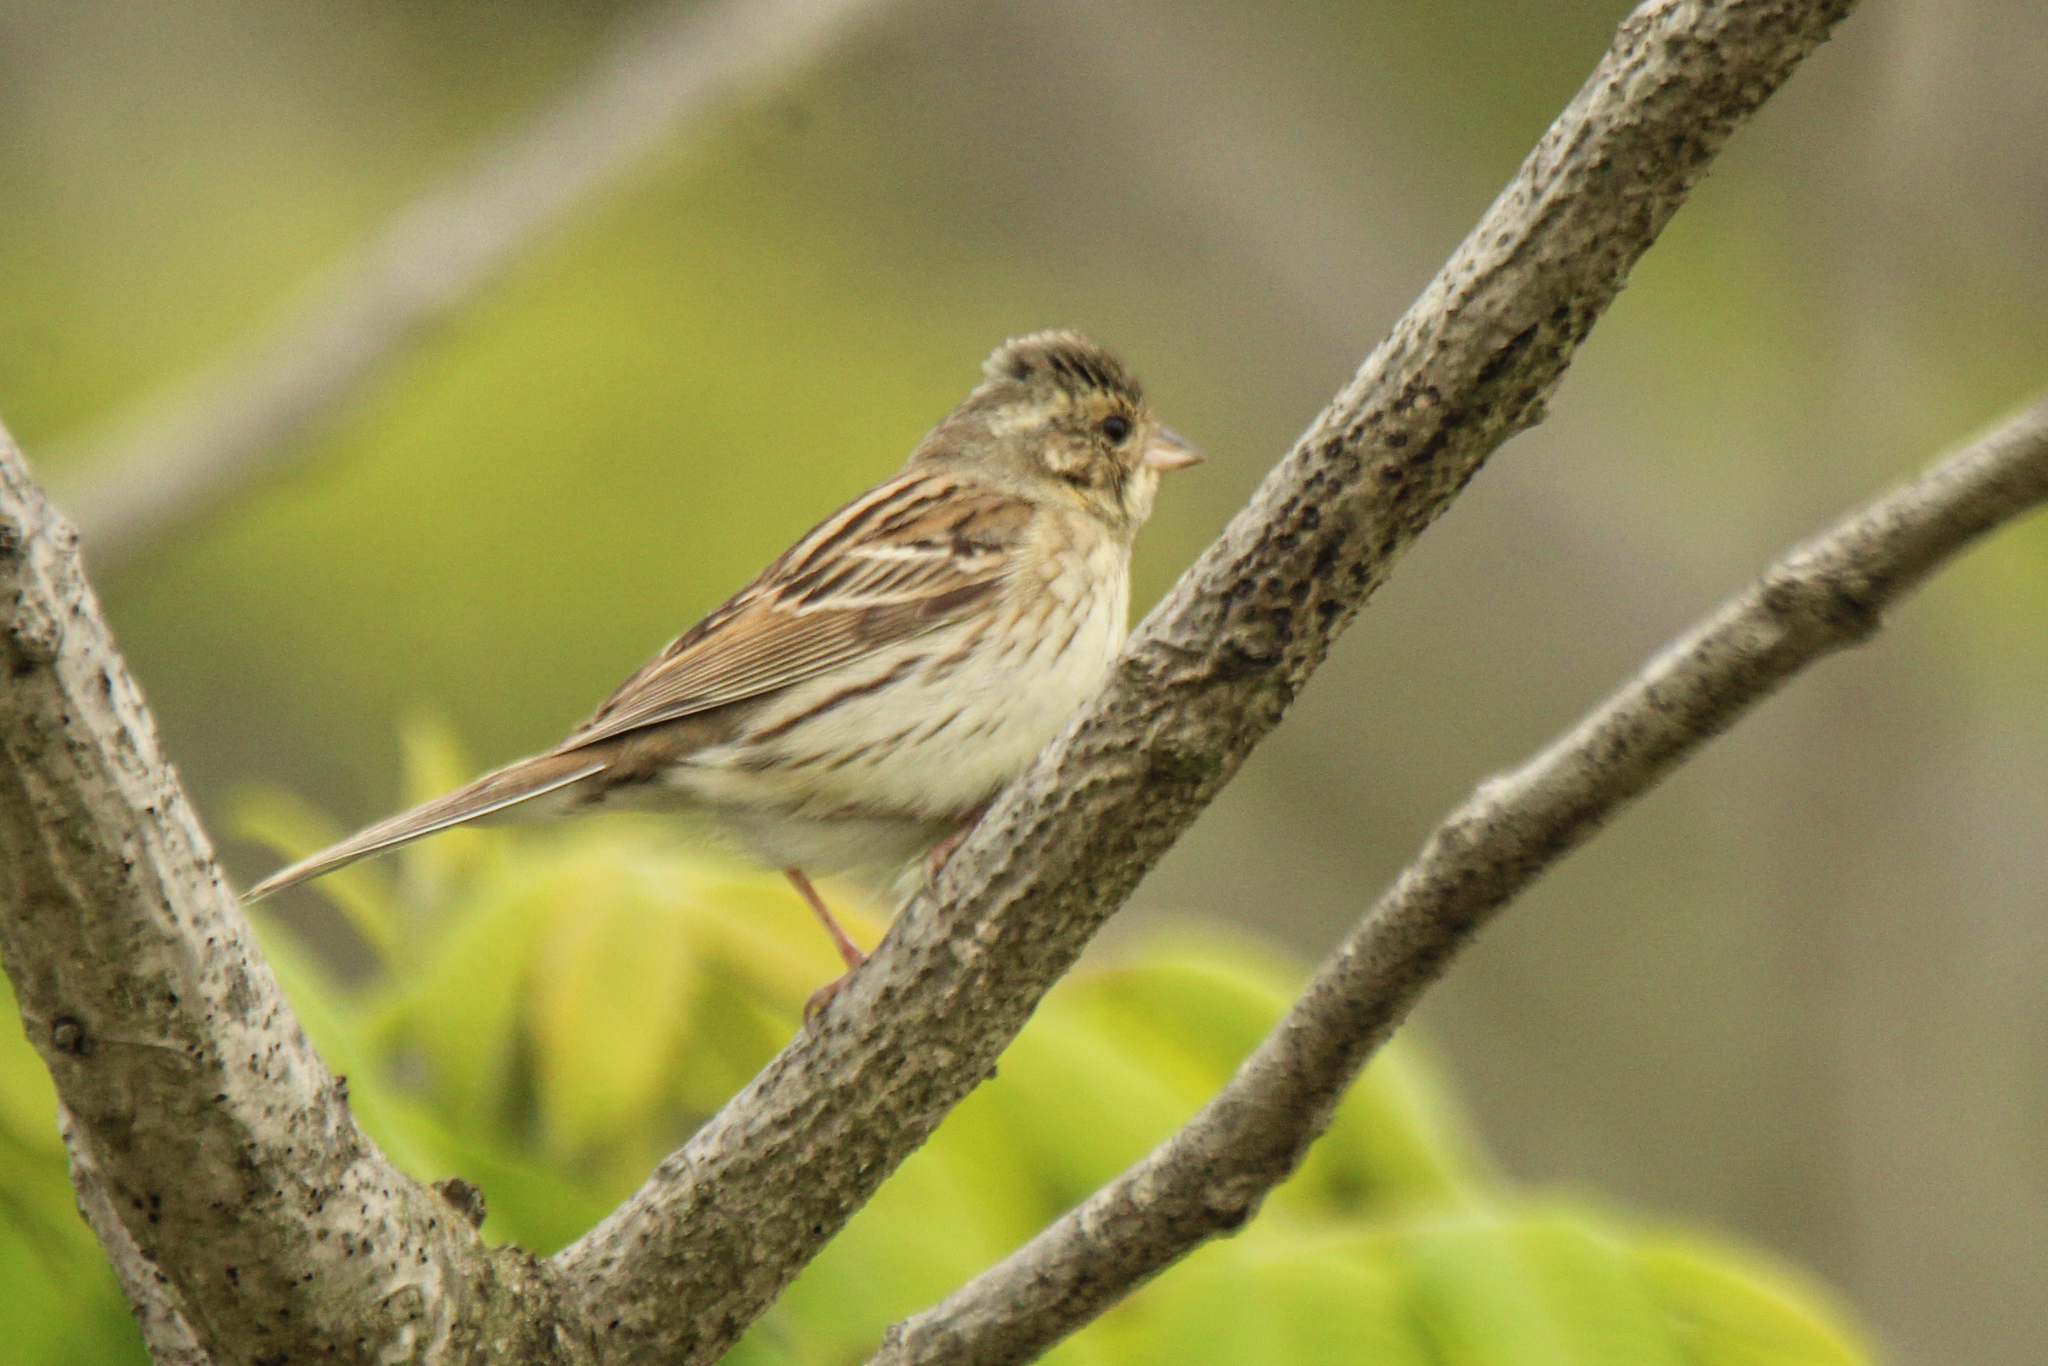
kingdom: Animalia
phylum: Chordata
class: Aves
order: Passeriformes
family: Emberizidae
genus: Emberiza
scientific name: Emberiza spodocephala
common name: Black-faced bunting
